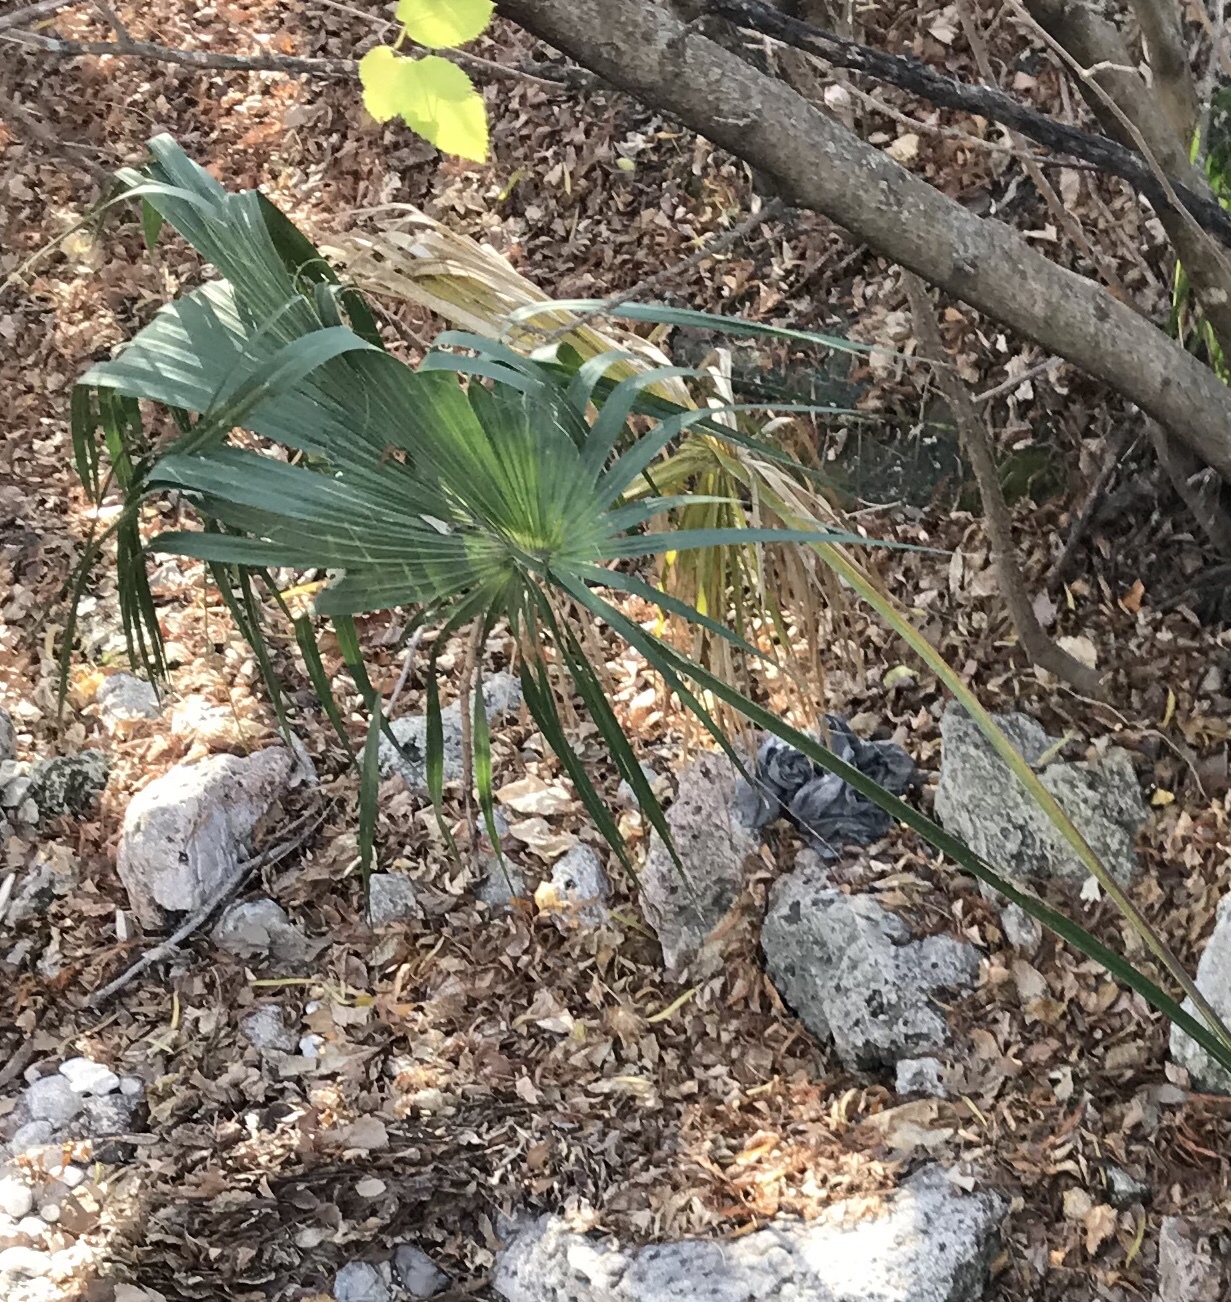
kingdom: Plantae
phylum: Tracheophyta
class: Liliopsida
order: Arecales
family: Arecaceae
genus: Sabal
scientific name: Sabal minor
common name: Dwarf palmetto
